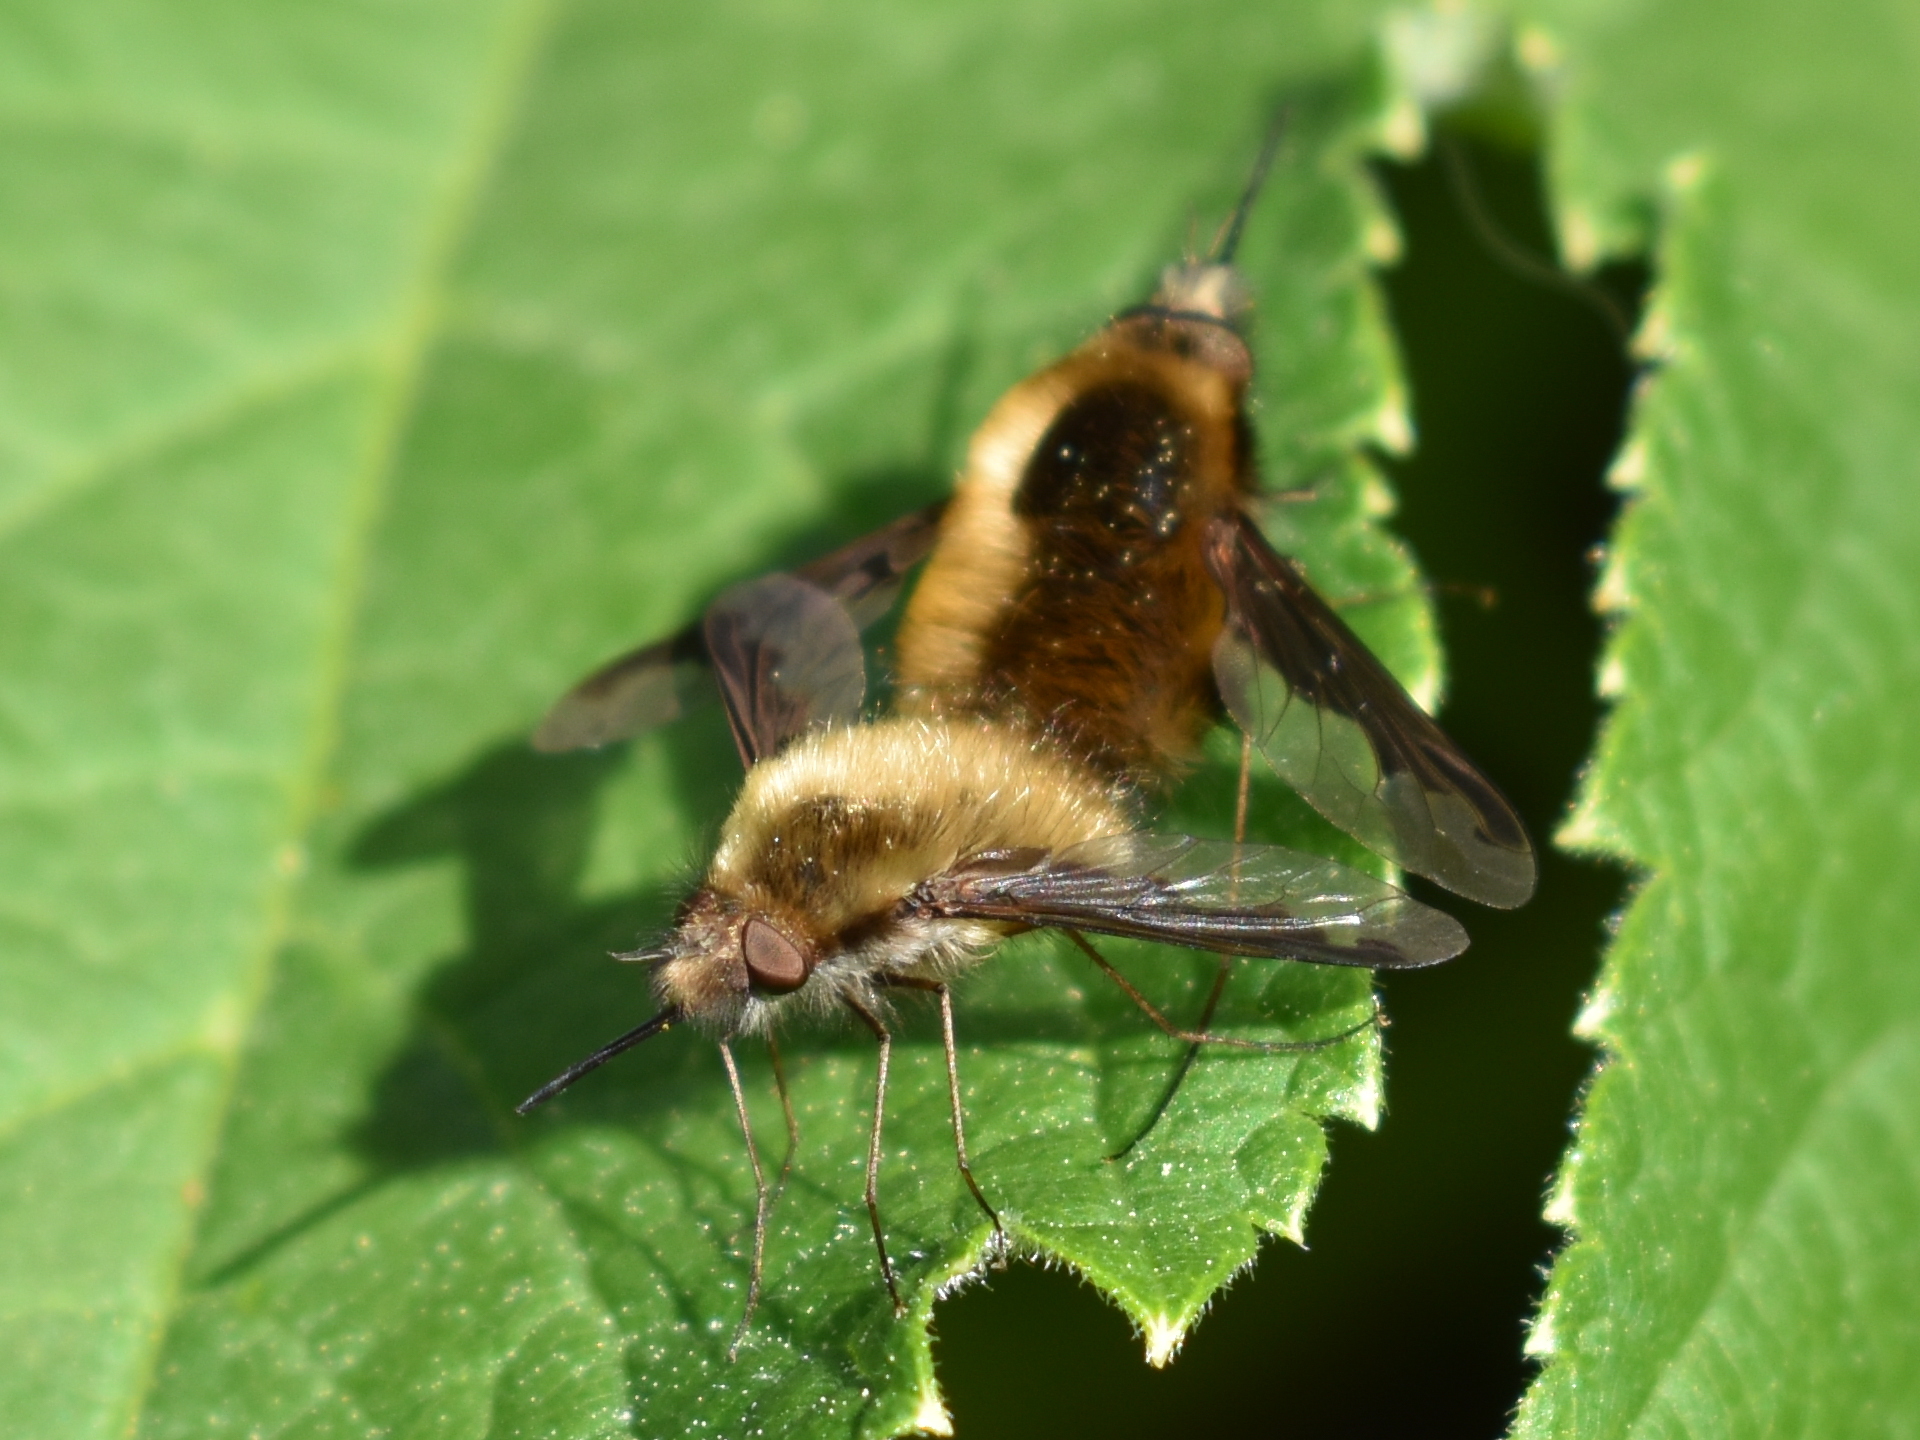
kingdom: Animalia
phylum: Arthropoda
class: Insecta
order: Diptera
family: Bombyliidae
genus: Bombylius
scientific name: Bombylius major
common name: Bee fly
